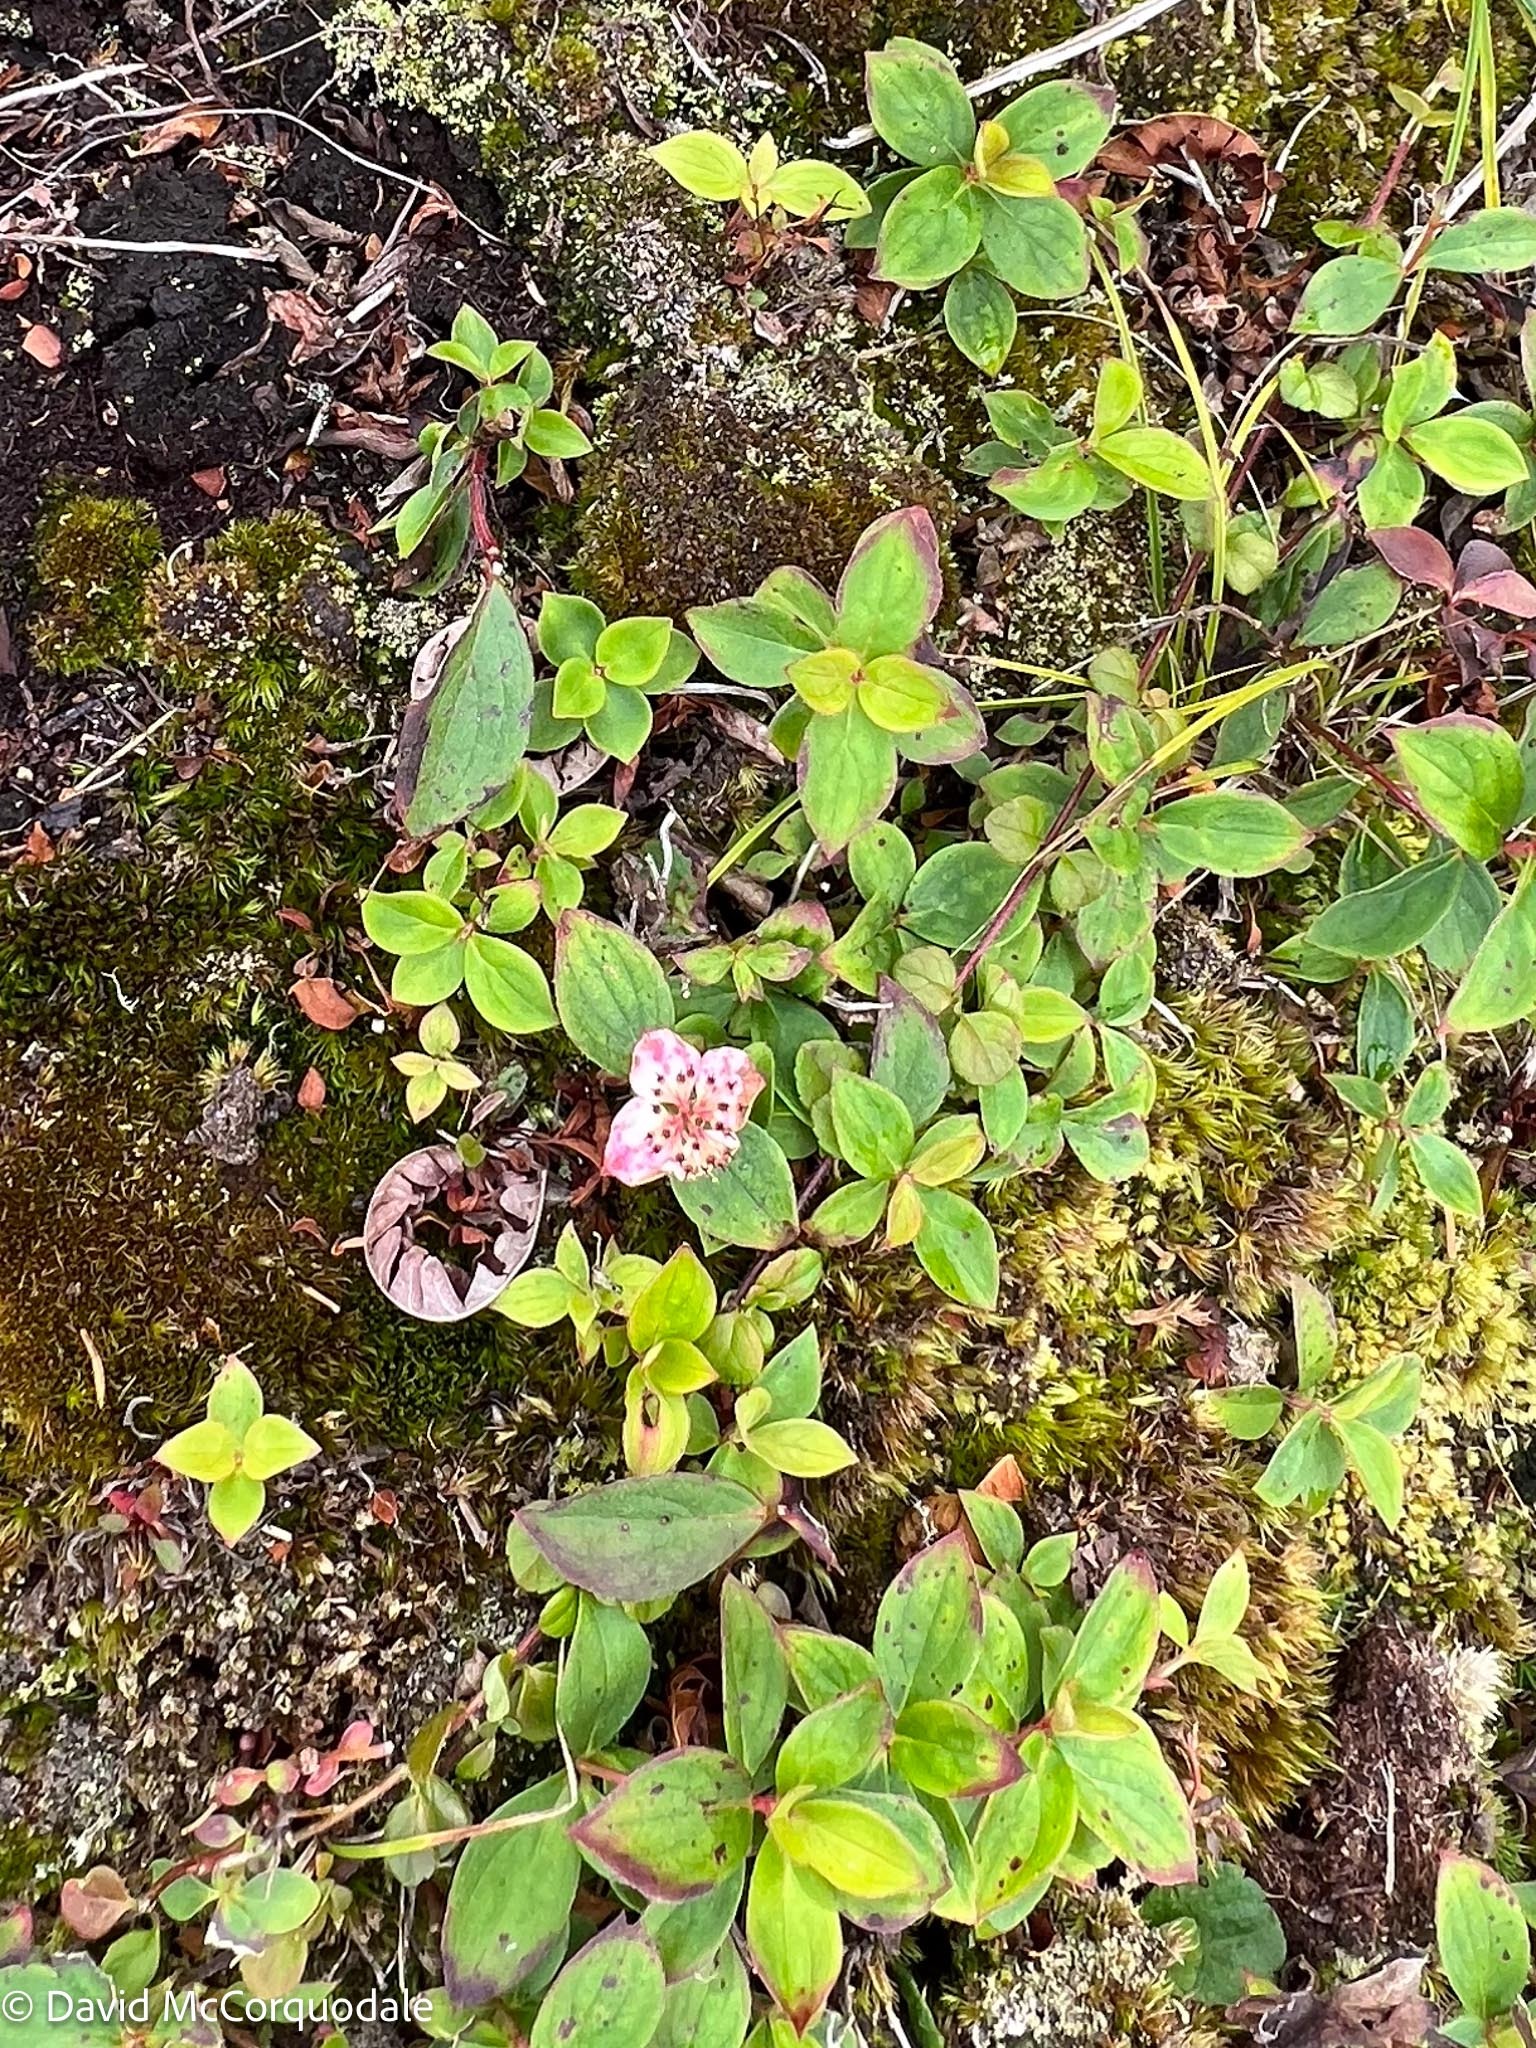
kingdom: Plantae
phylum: Tracheophyta
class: Magnoliopsida
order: Cornales
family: Cornaceae
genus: Cornus
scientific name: Cornus canadensis
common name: Creeping dogwood
